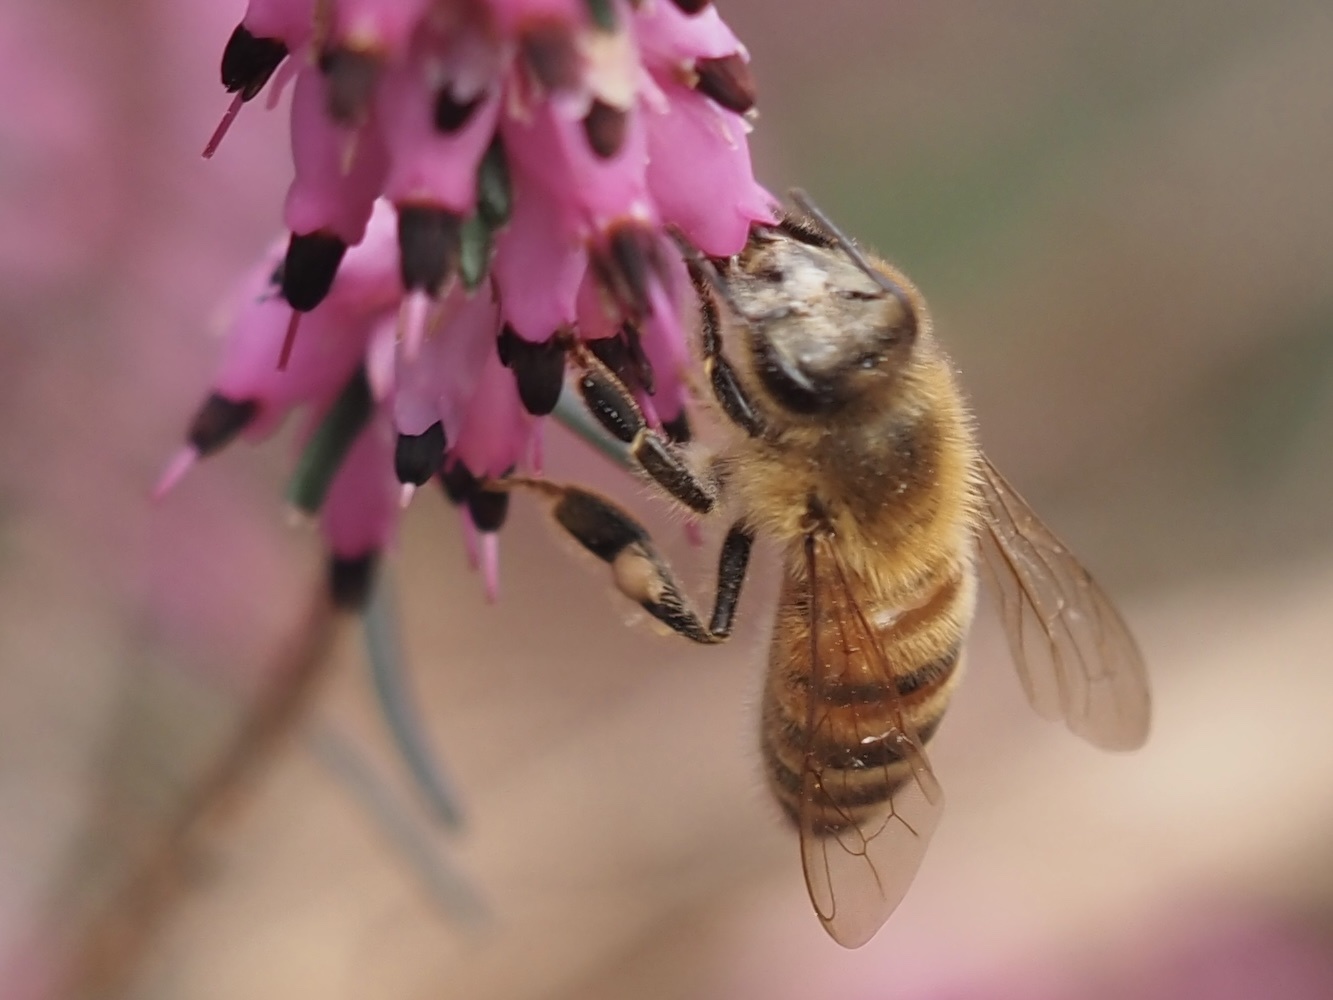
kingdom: Animalia
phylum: Arthropoda
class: Insecta
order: Hymenoptera
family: Apidae
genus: Apis
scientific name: Apis mellifera
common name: Honey bee
